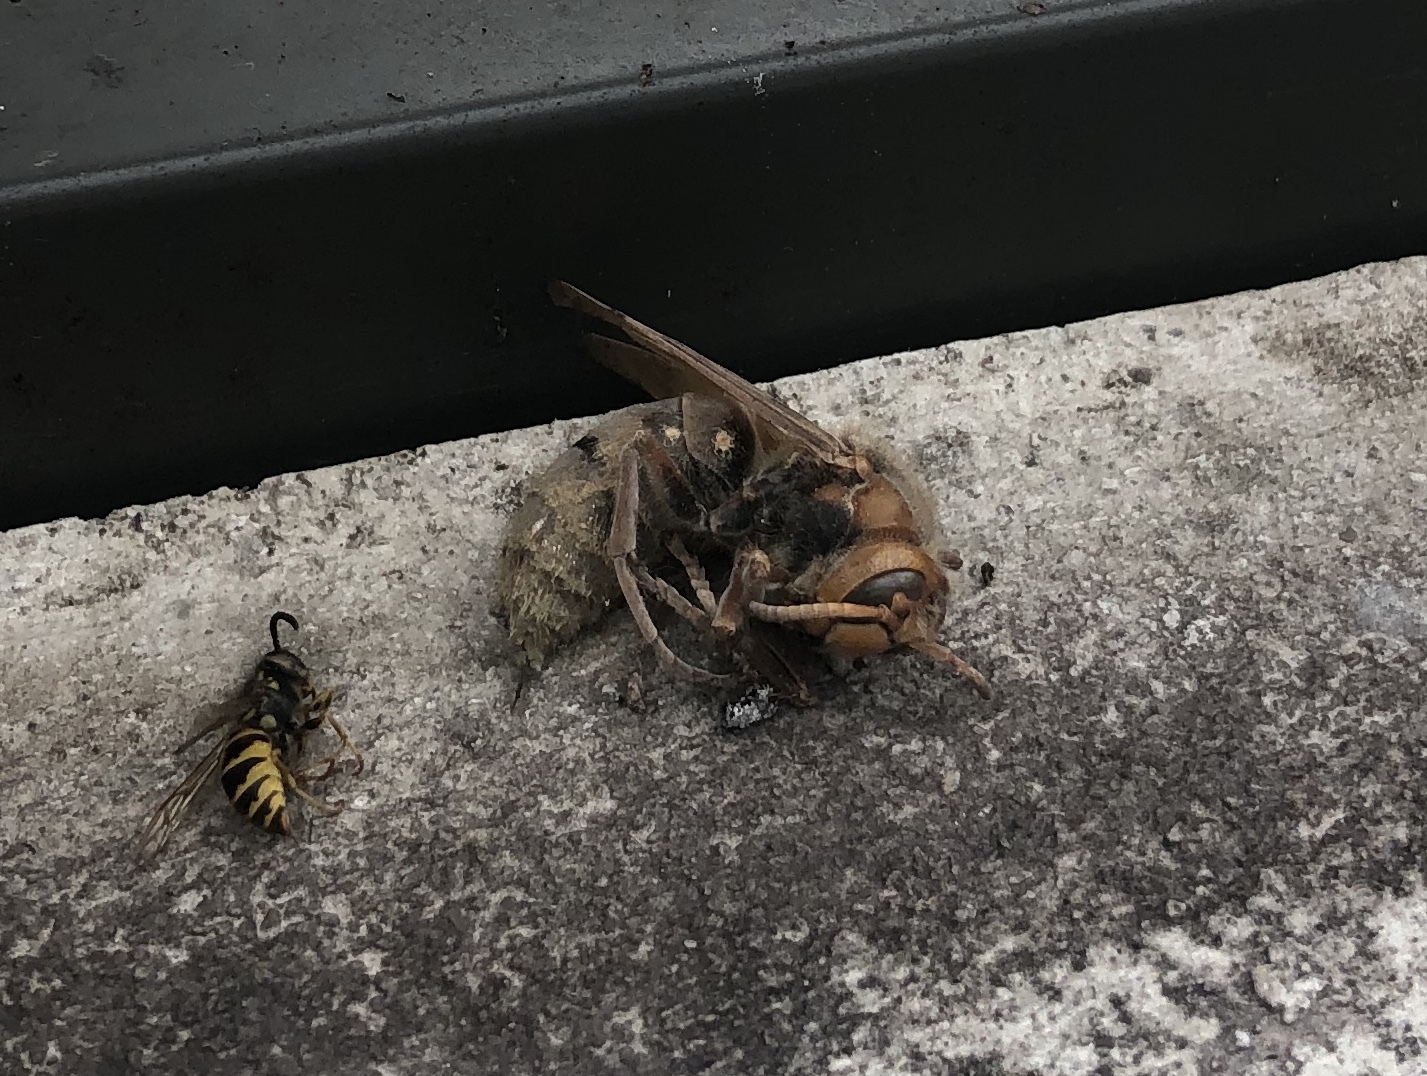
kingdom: Animalia
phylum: Arthropoda
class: Insecta
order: Hymenoptera
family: Vespidae
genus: Vespa
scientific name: Vespa crabro
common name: Hornet
